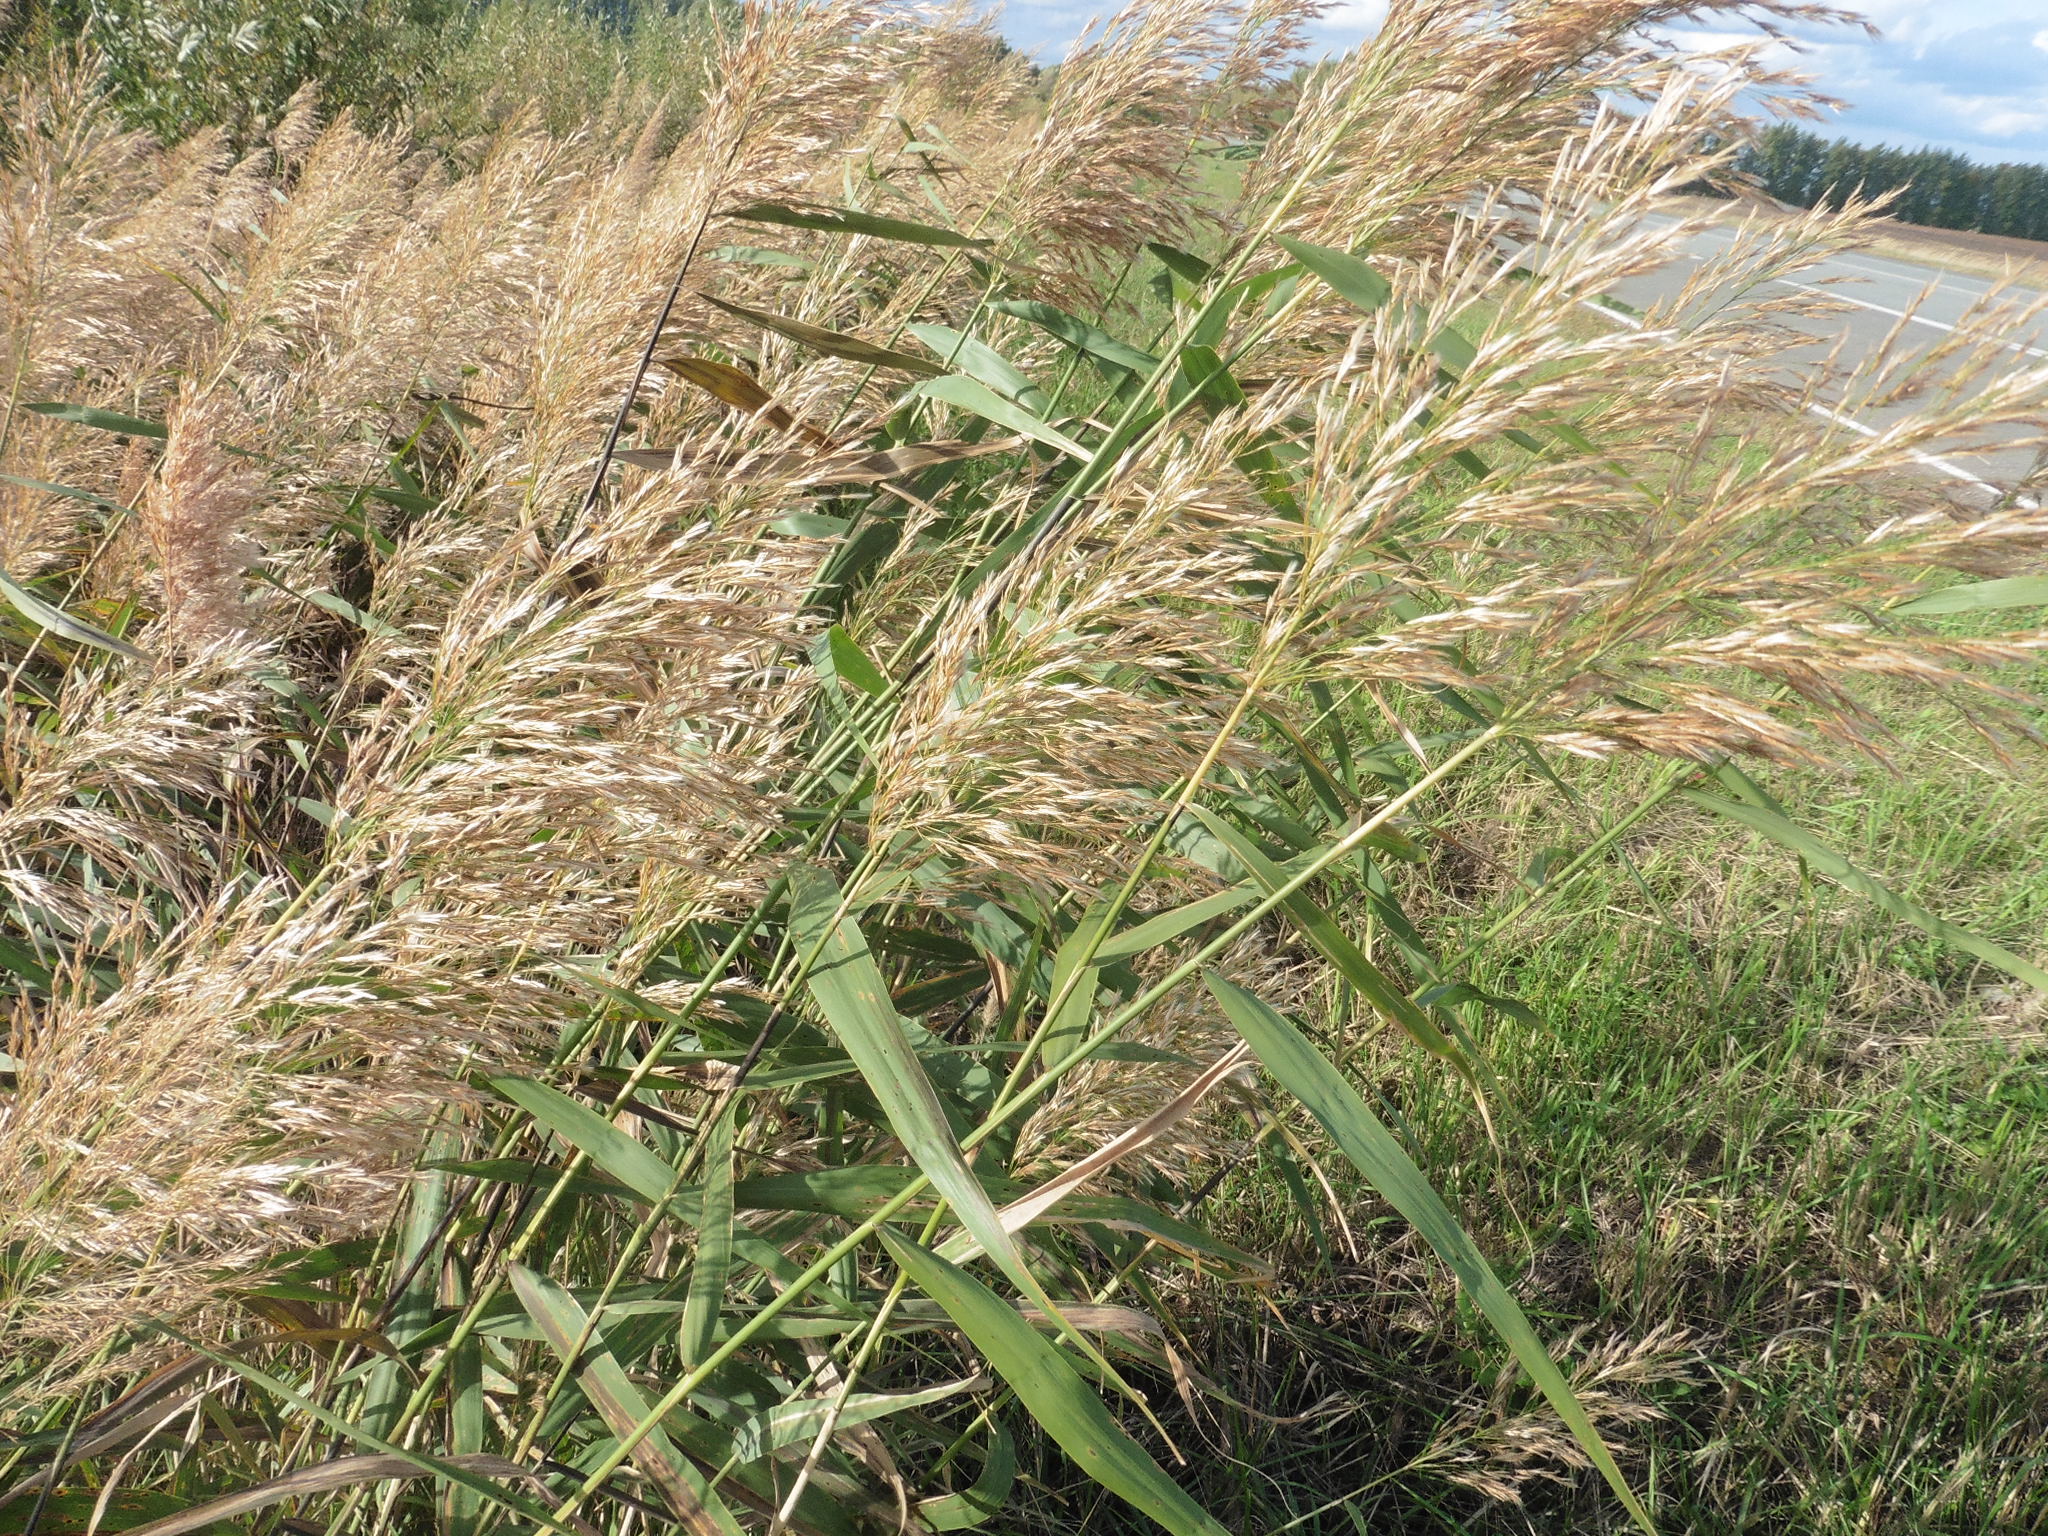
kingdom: Plantae
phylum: Tracheophyta
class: Liliopsida
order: Poales
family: Poaceae
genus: Phragmites
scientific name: Phragmites australis
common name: Common reed
